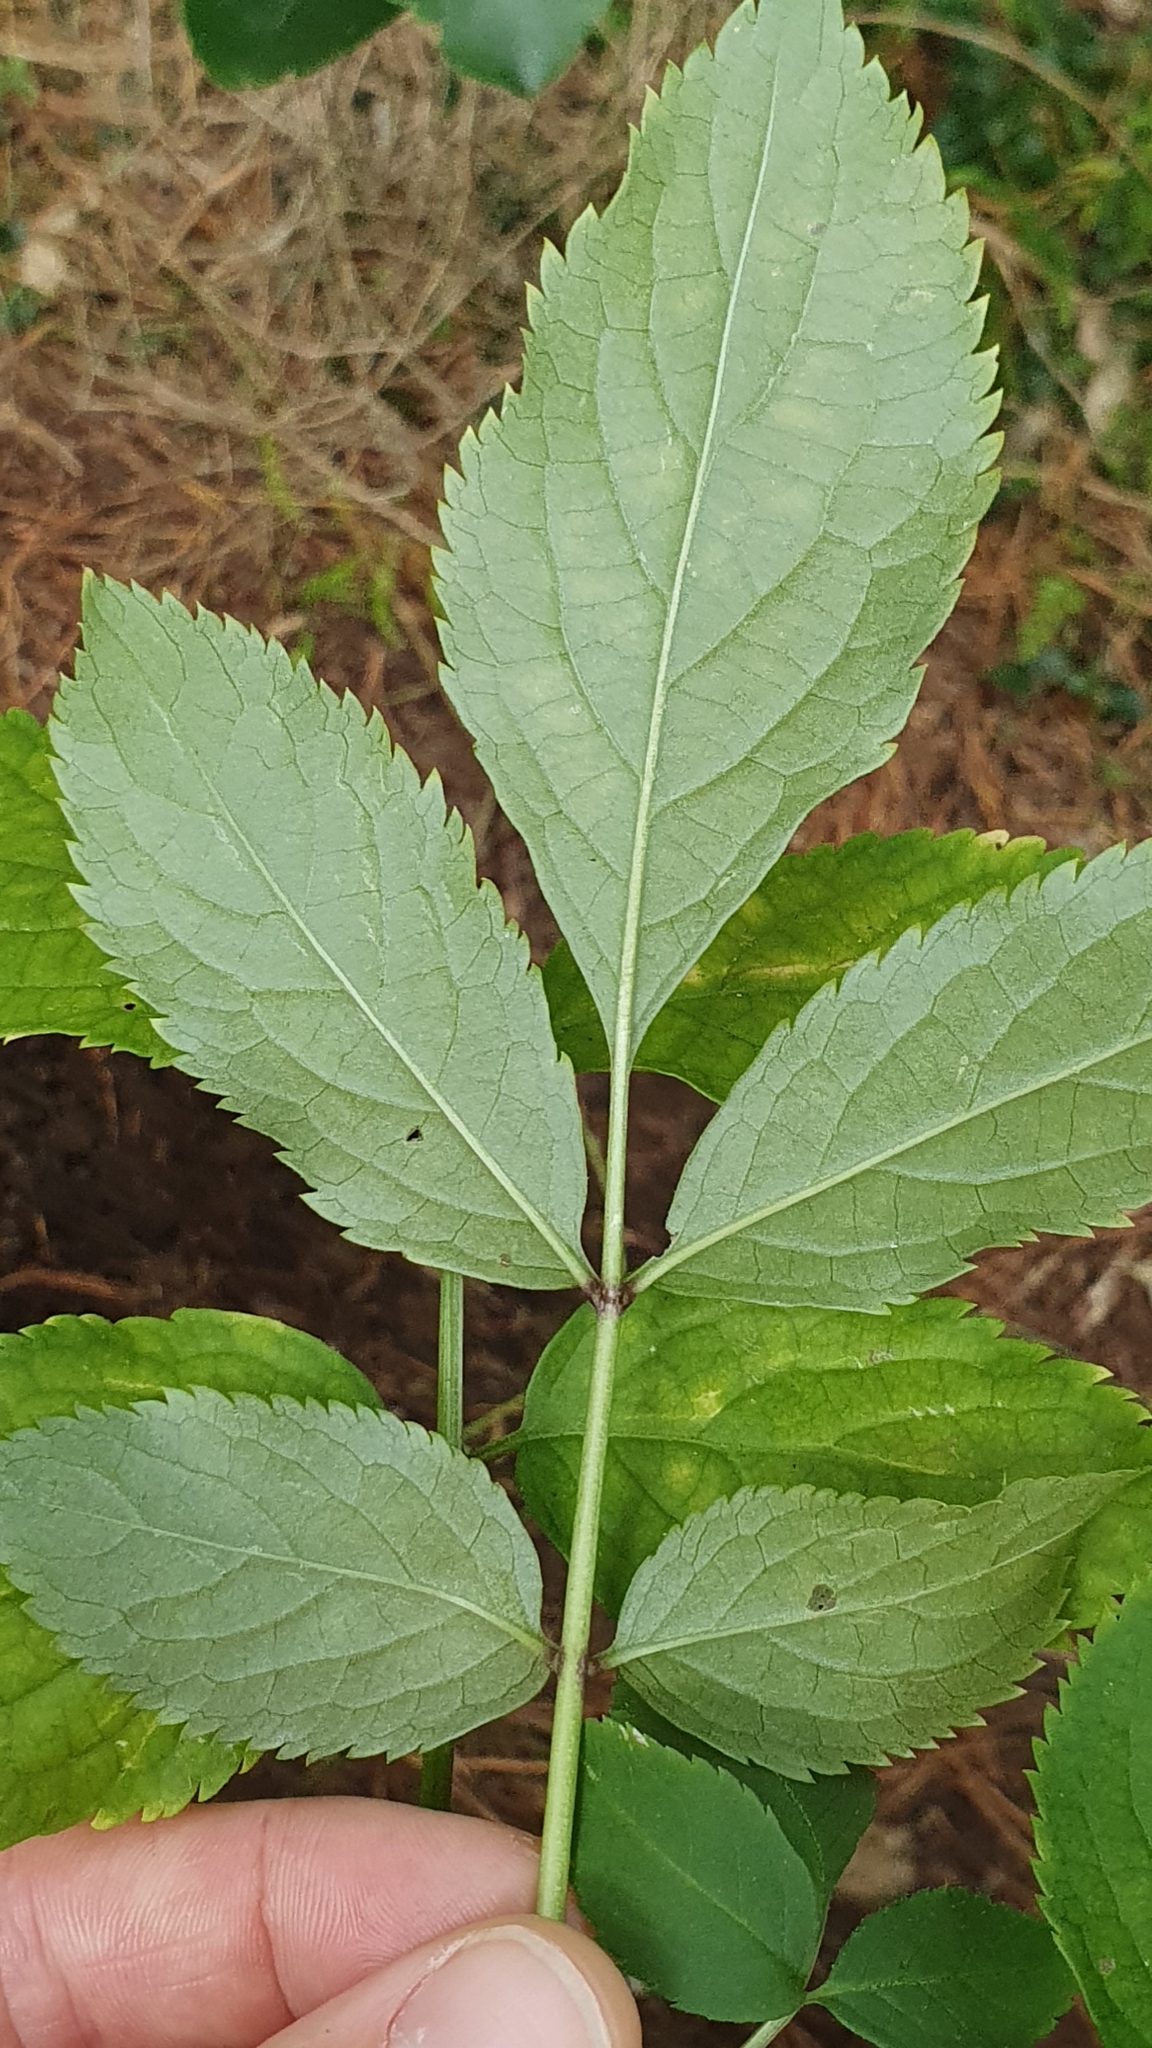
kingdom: Plantae
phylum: Tracheophyta
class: Magnoliopsida
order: Dipsacales
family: Viburnaceae
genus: Sambucus
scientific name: Sambucus nigra
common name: Elder
